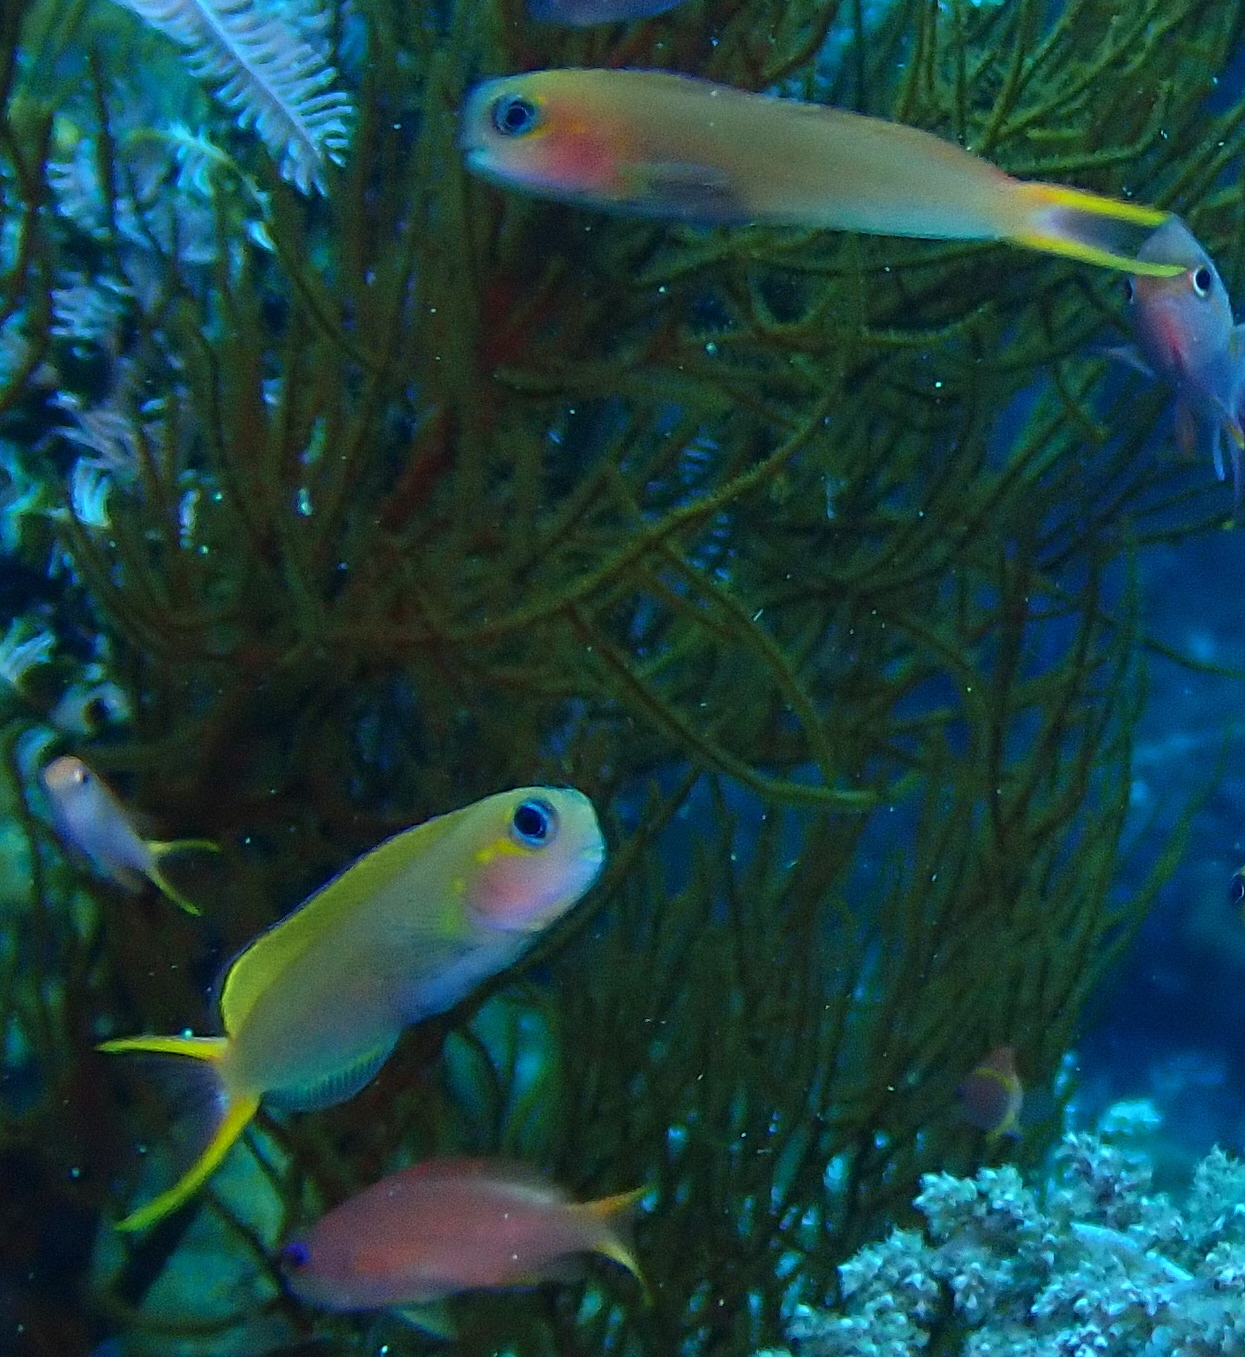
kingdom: Animalia
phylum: Chordata
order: Perciformes
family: Blenniidae
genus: Ecsenius
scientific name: Ecsenius midas
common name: Golden blenny
